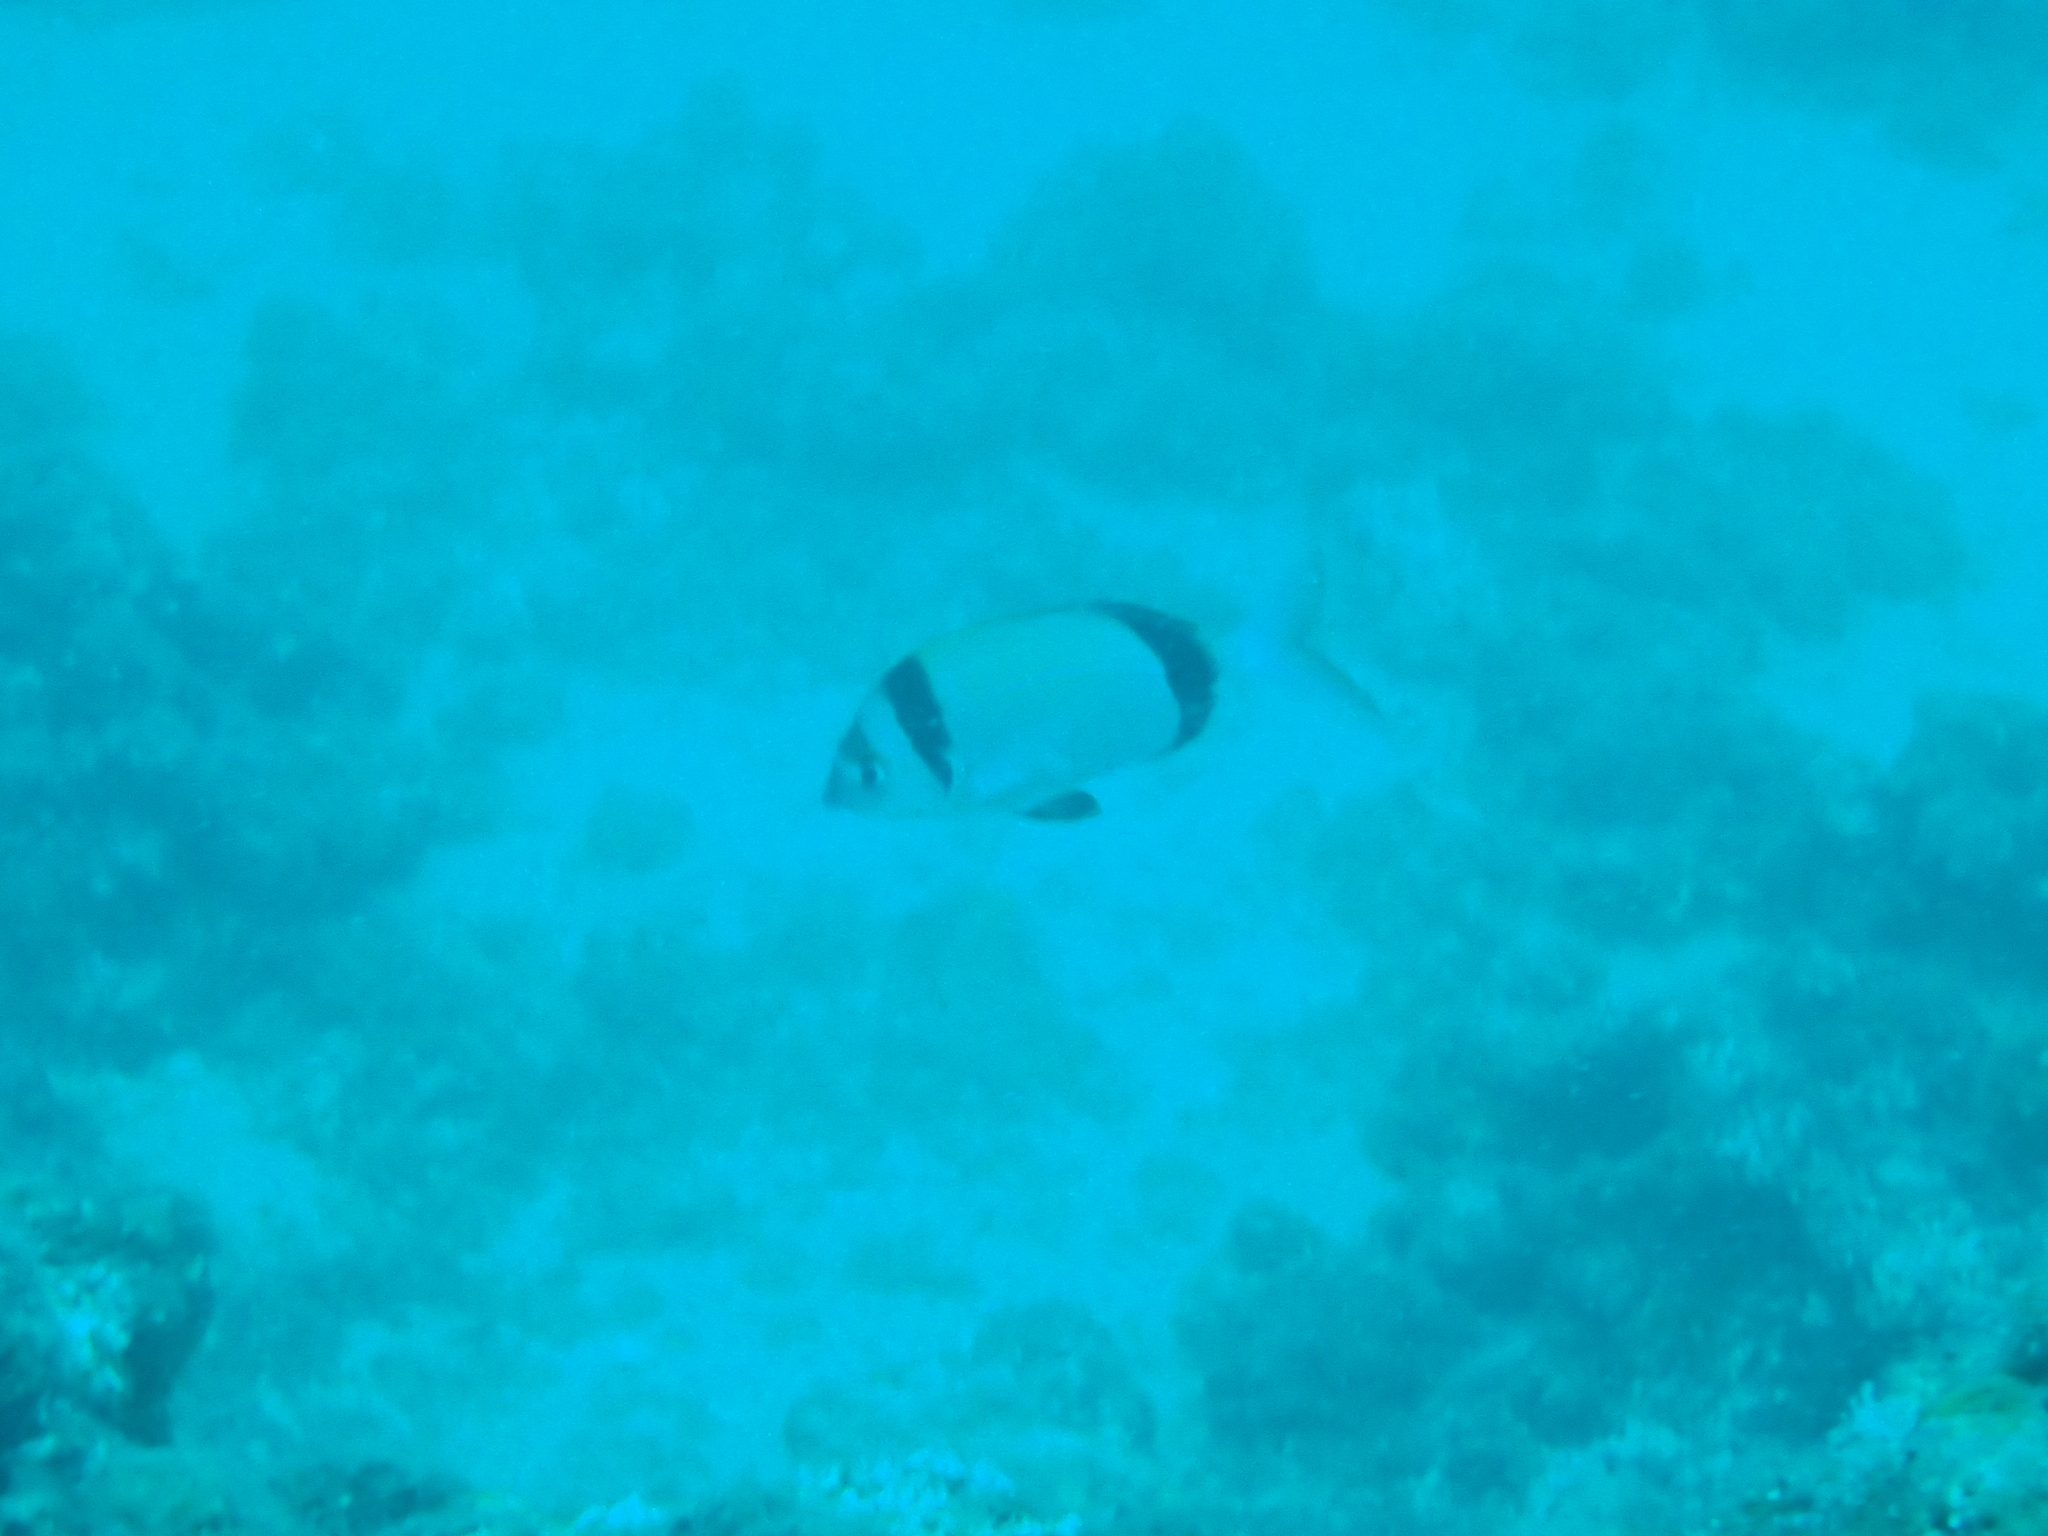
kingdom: Animalia
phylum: Chordata
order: Perciformes
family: Sparidae
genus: Diplodus
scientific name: Diplodus vulgaris
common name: Common two-banded seabream
